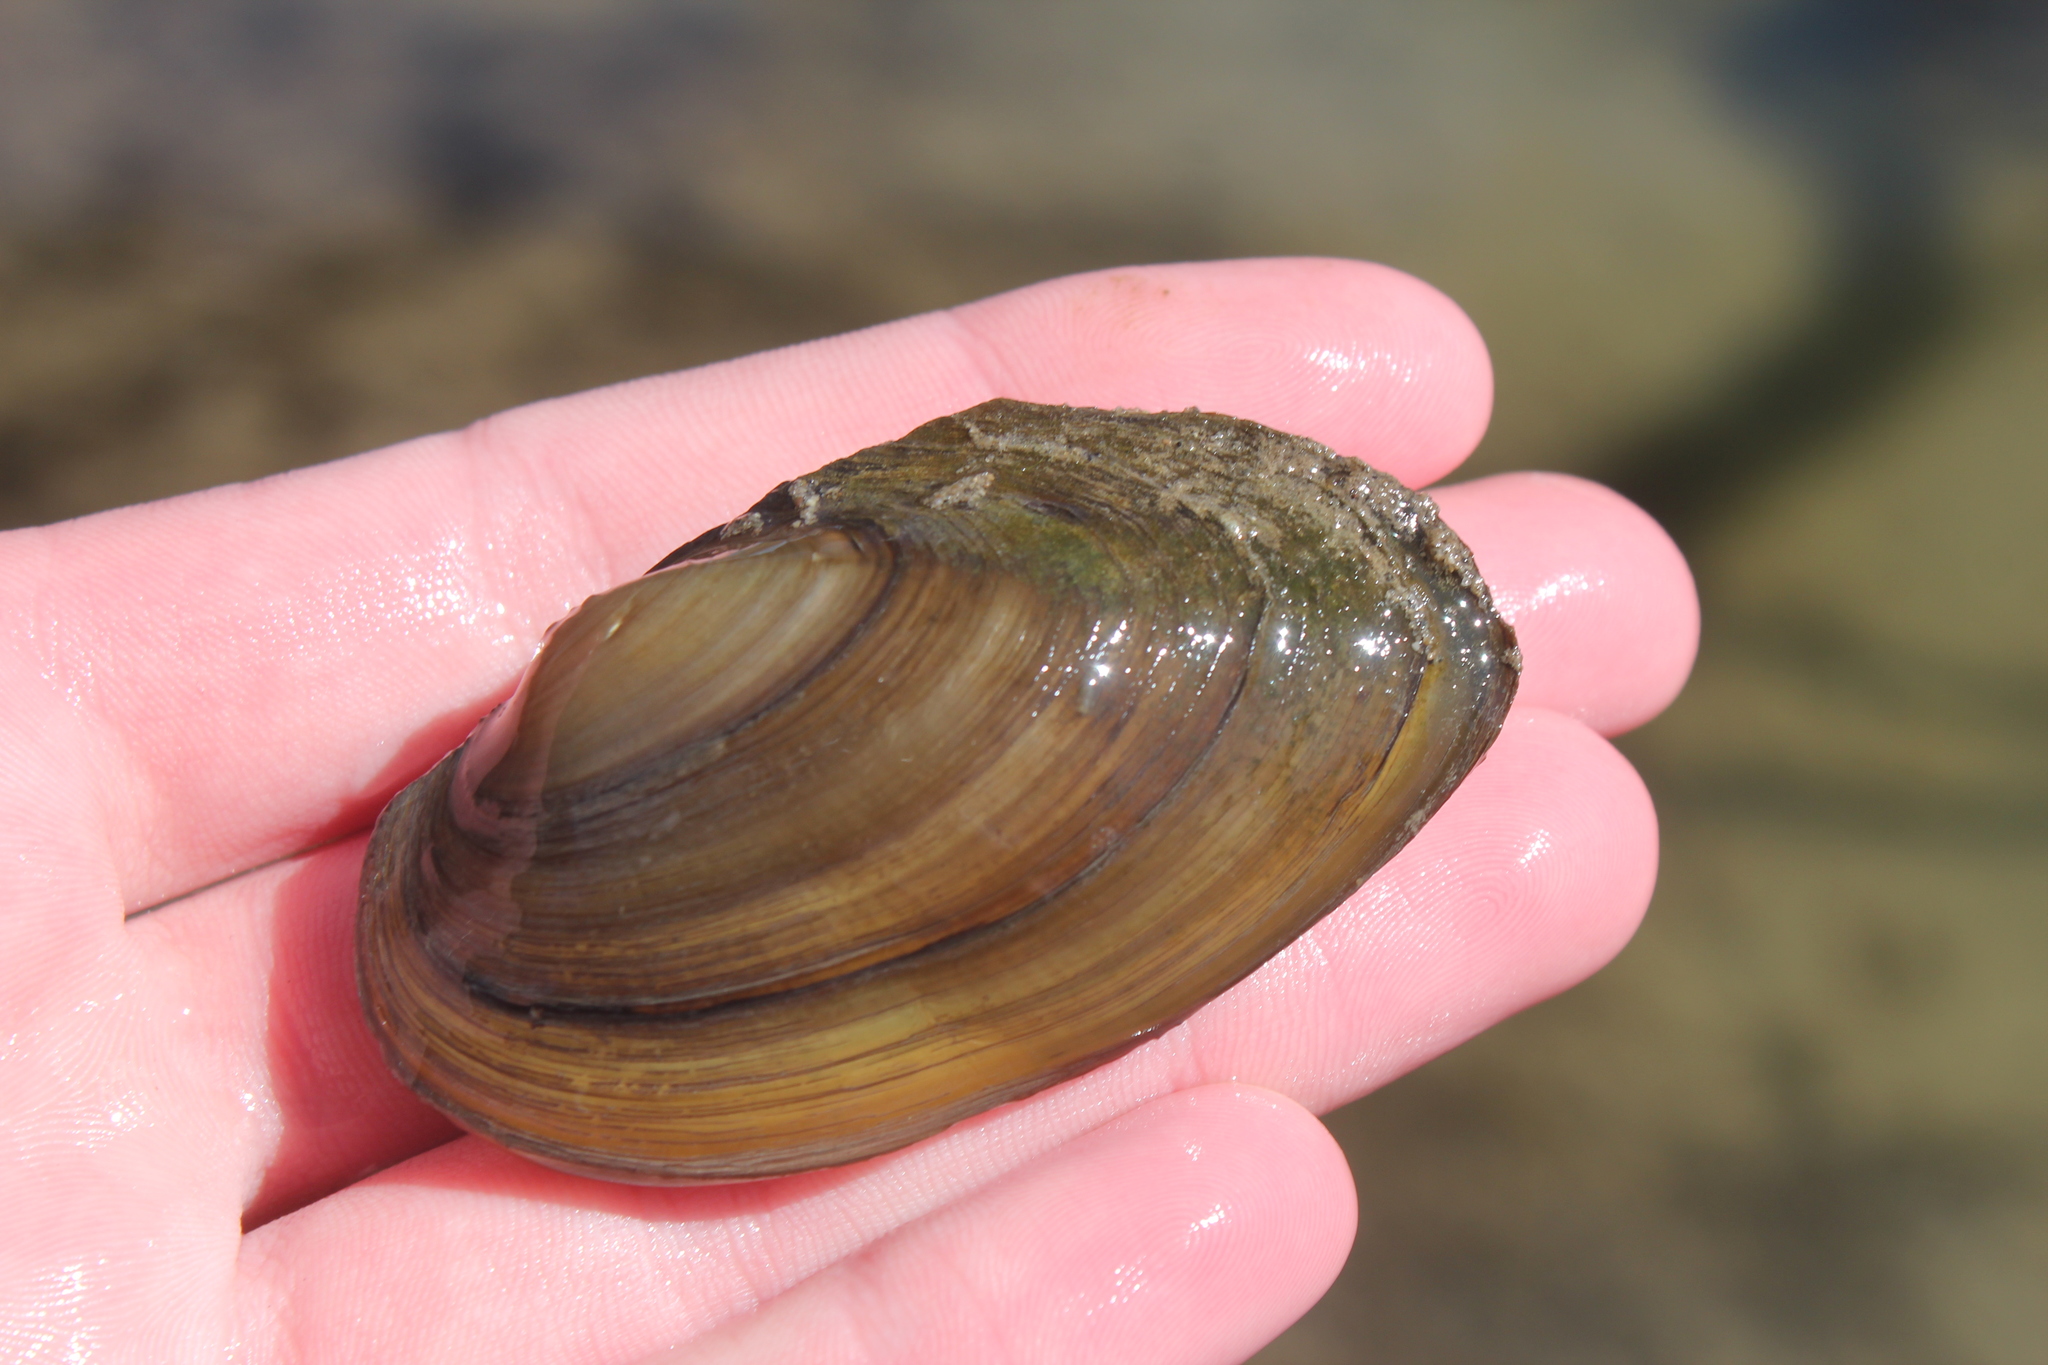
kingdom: Animalia
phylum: Mollusca
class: Bivalvia
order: Unionida
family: Unionidae
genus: Pyganodon
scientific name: Pyganodon grandis
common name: Giant floater
